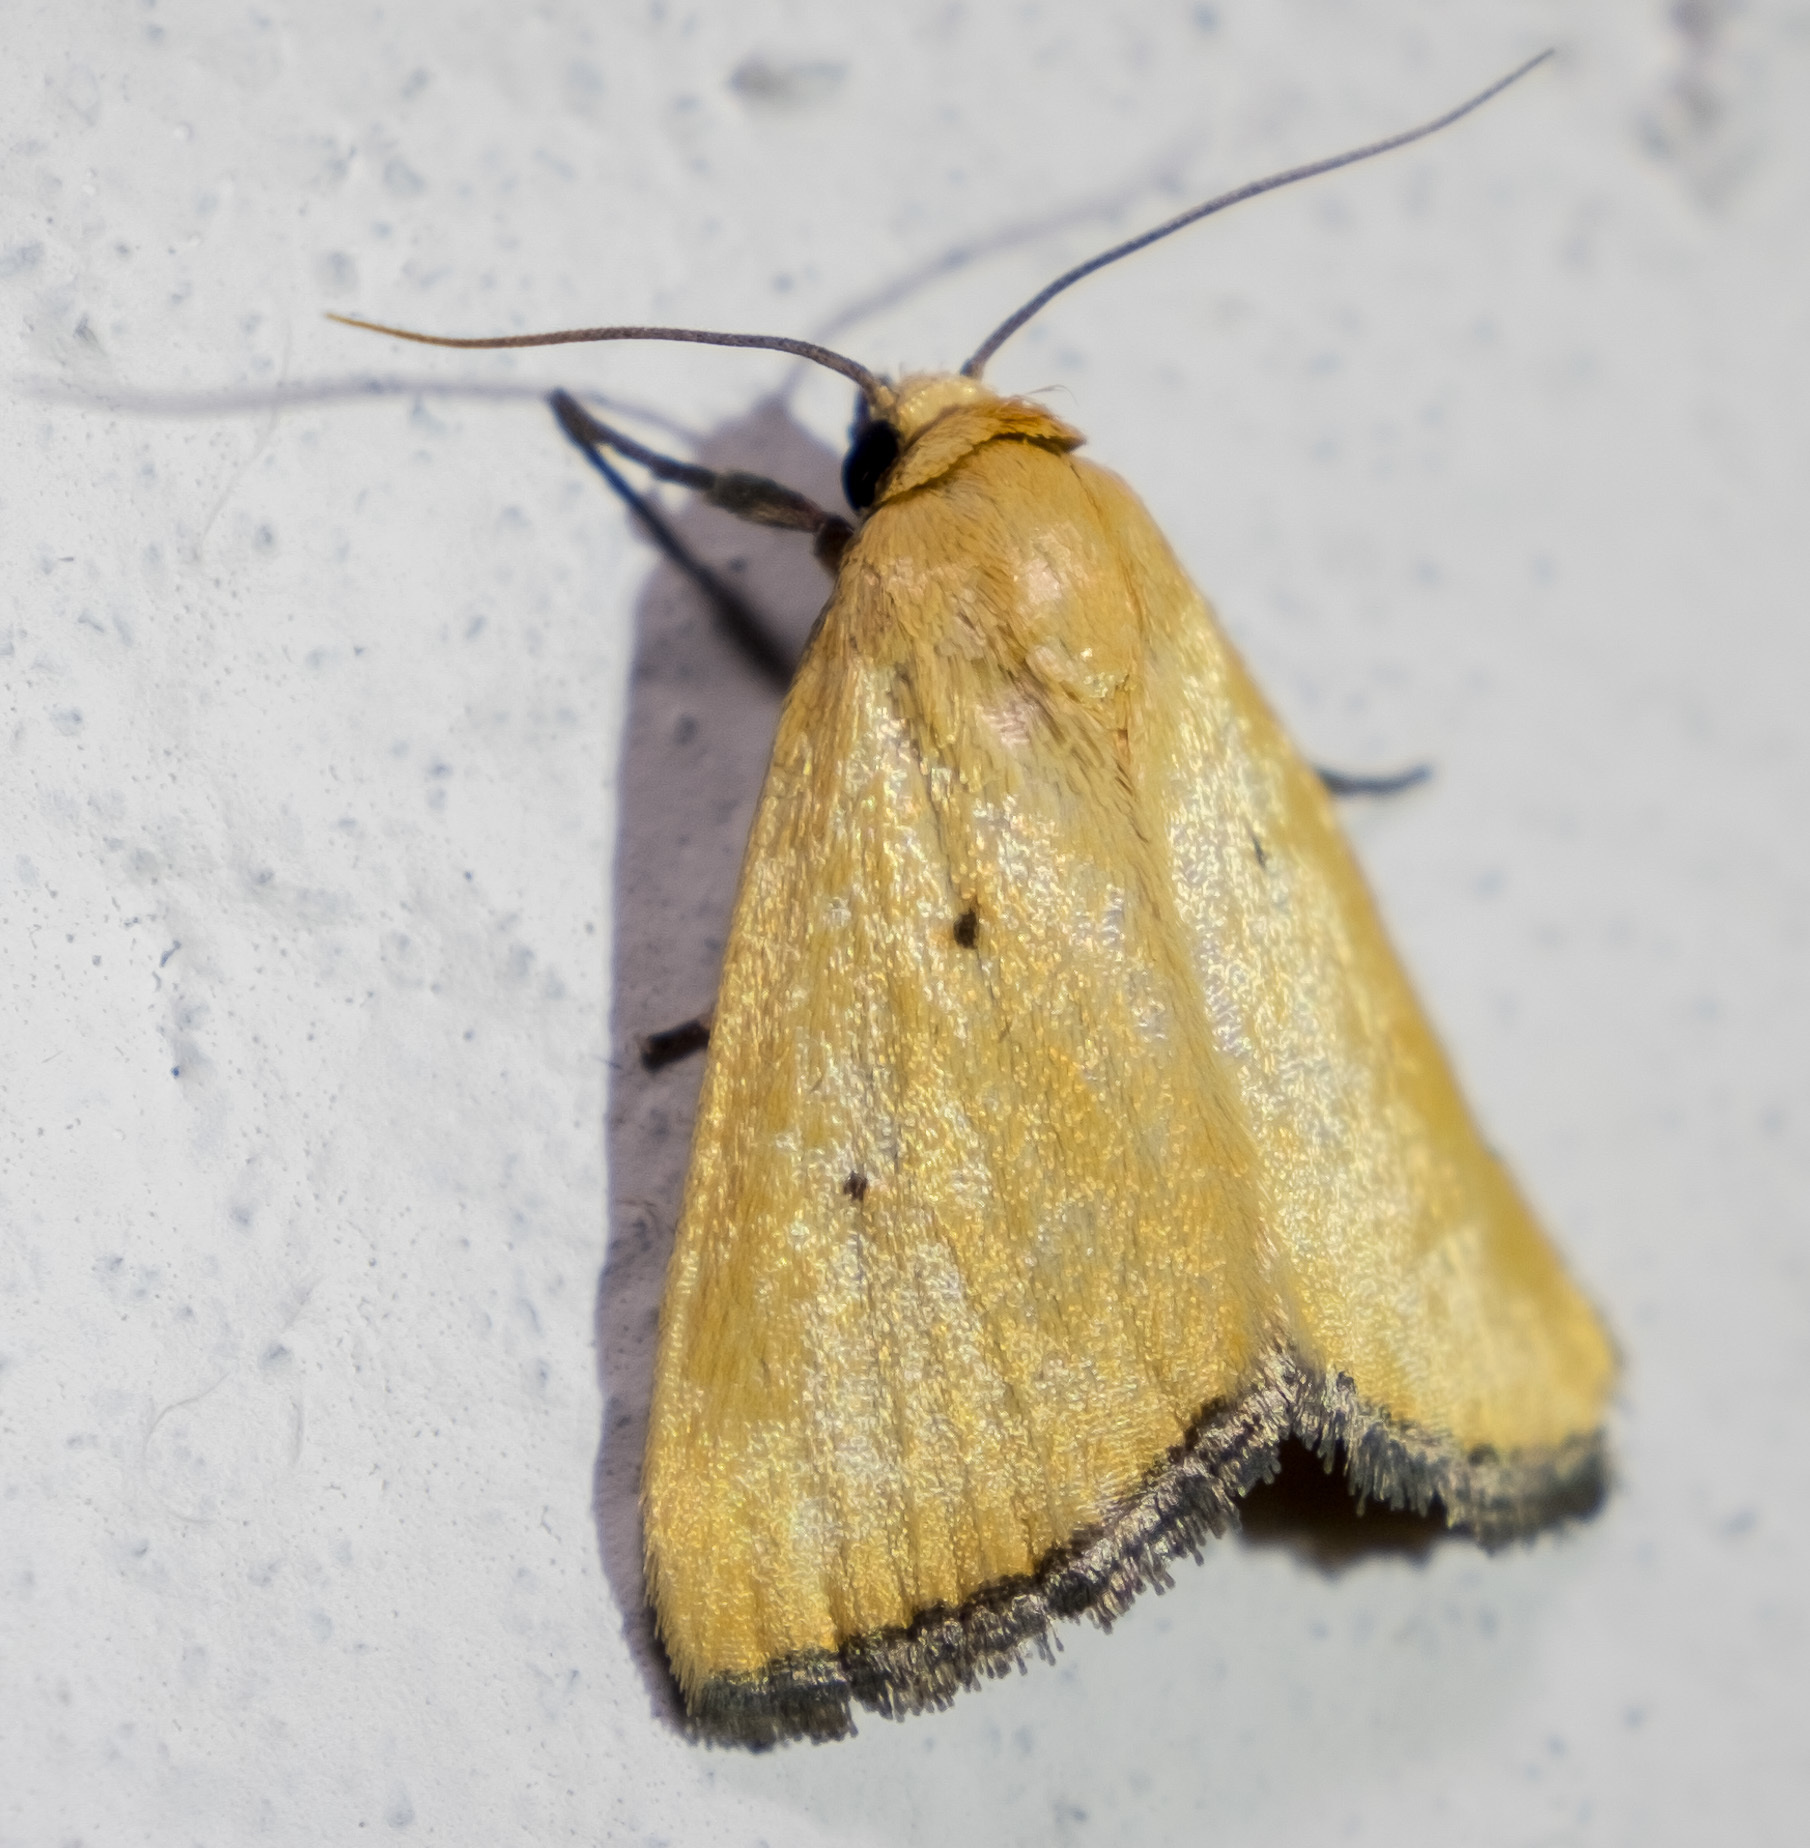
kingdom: Animalia
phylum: Arthropoda
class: Insecta
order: Lepidoptera
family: Noctuidae
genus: Marimatha
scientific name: Marimatha nigrofimbria
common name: Black-bordered lemon moth
